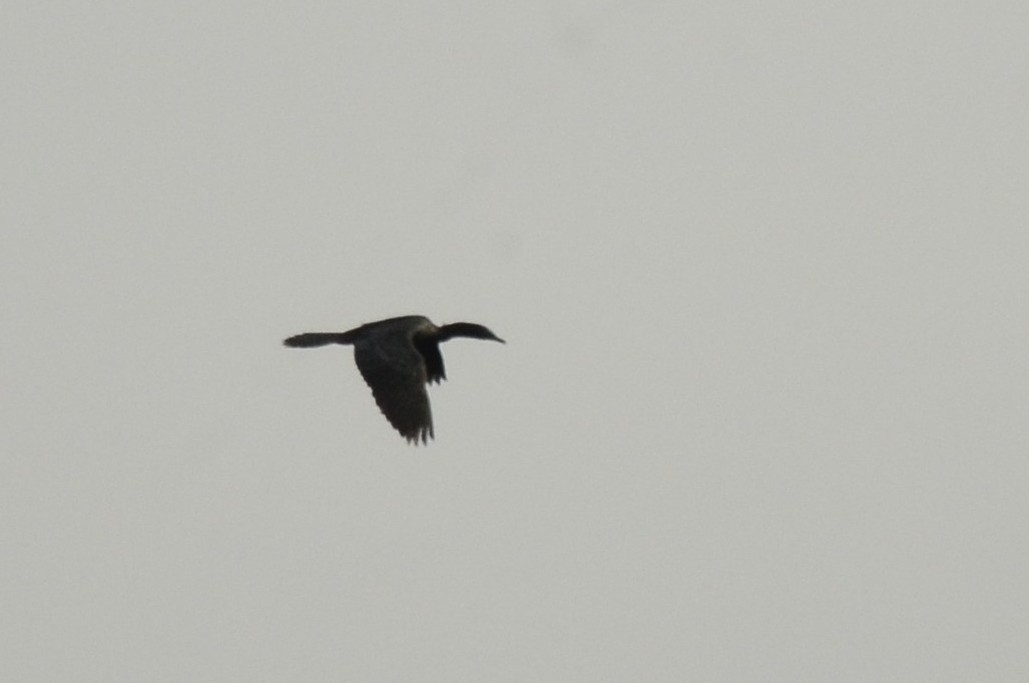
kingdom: Animalia
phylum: Chordata
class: Aves
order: Suliformes
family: Phalacrocoracidae
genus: Microcarbo
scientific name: Microcarbo niger
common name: Little cormorant
